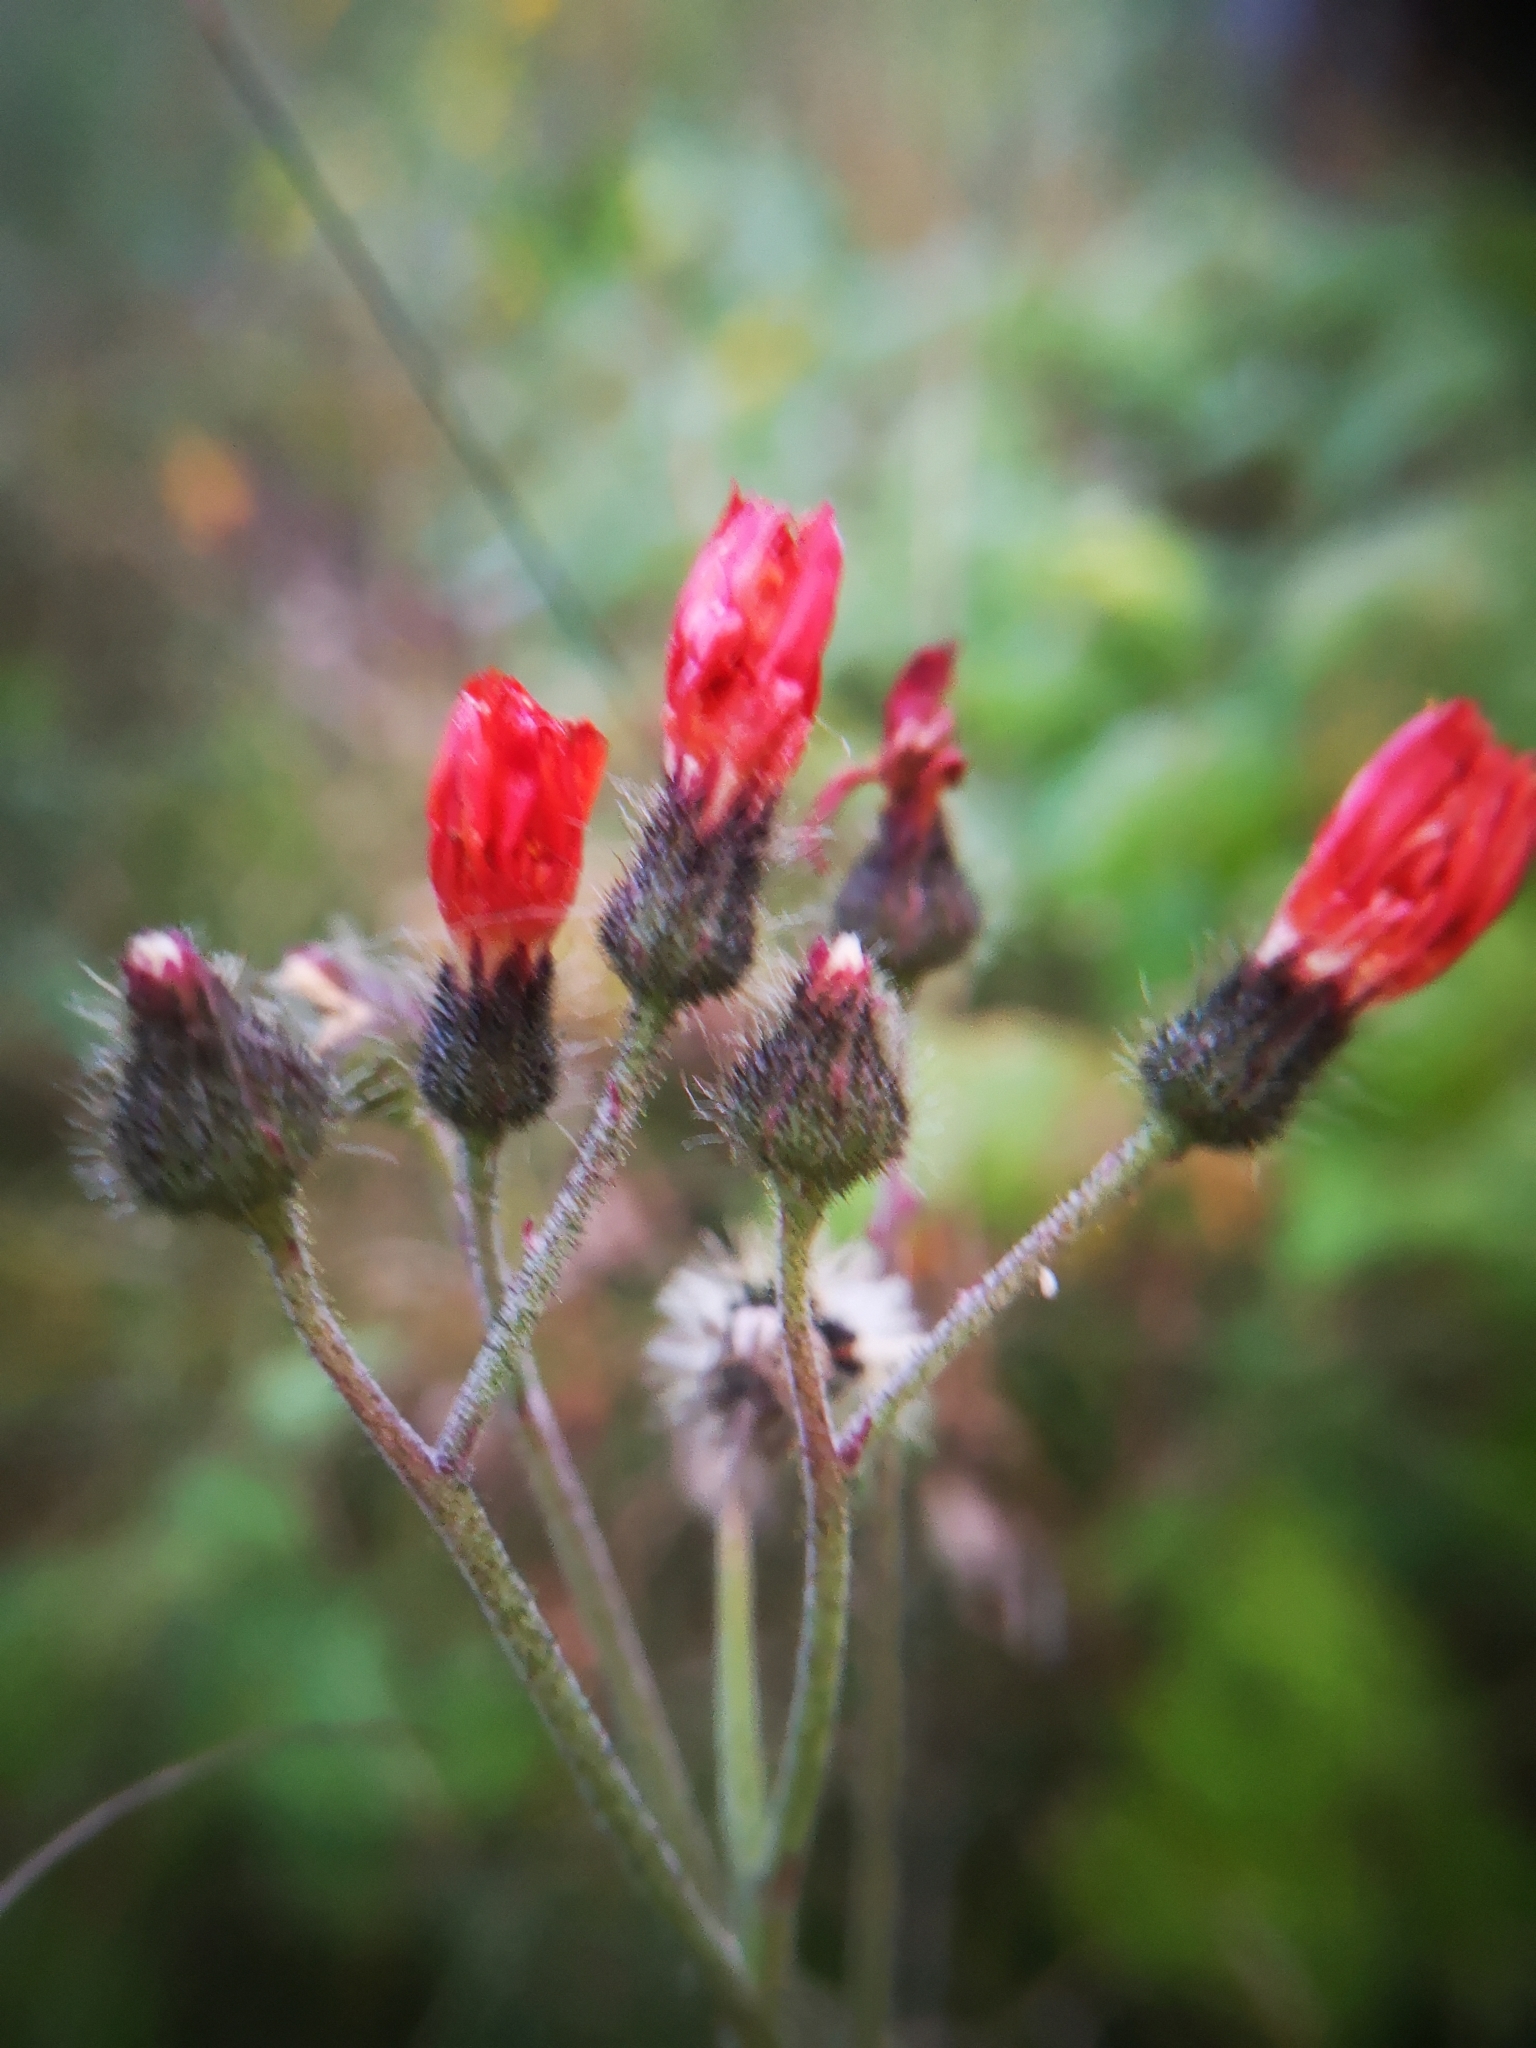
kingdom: Plantae
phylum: Tracheophyta
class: Magnoliopsida
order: Asterales
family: Asteraceae
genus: Pilosella
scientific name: Pilosella aurantiaca
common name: Fox-and-cubs
